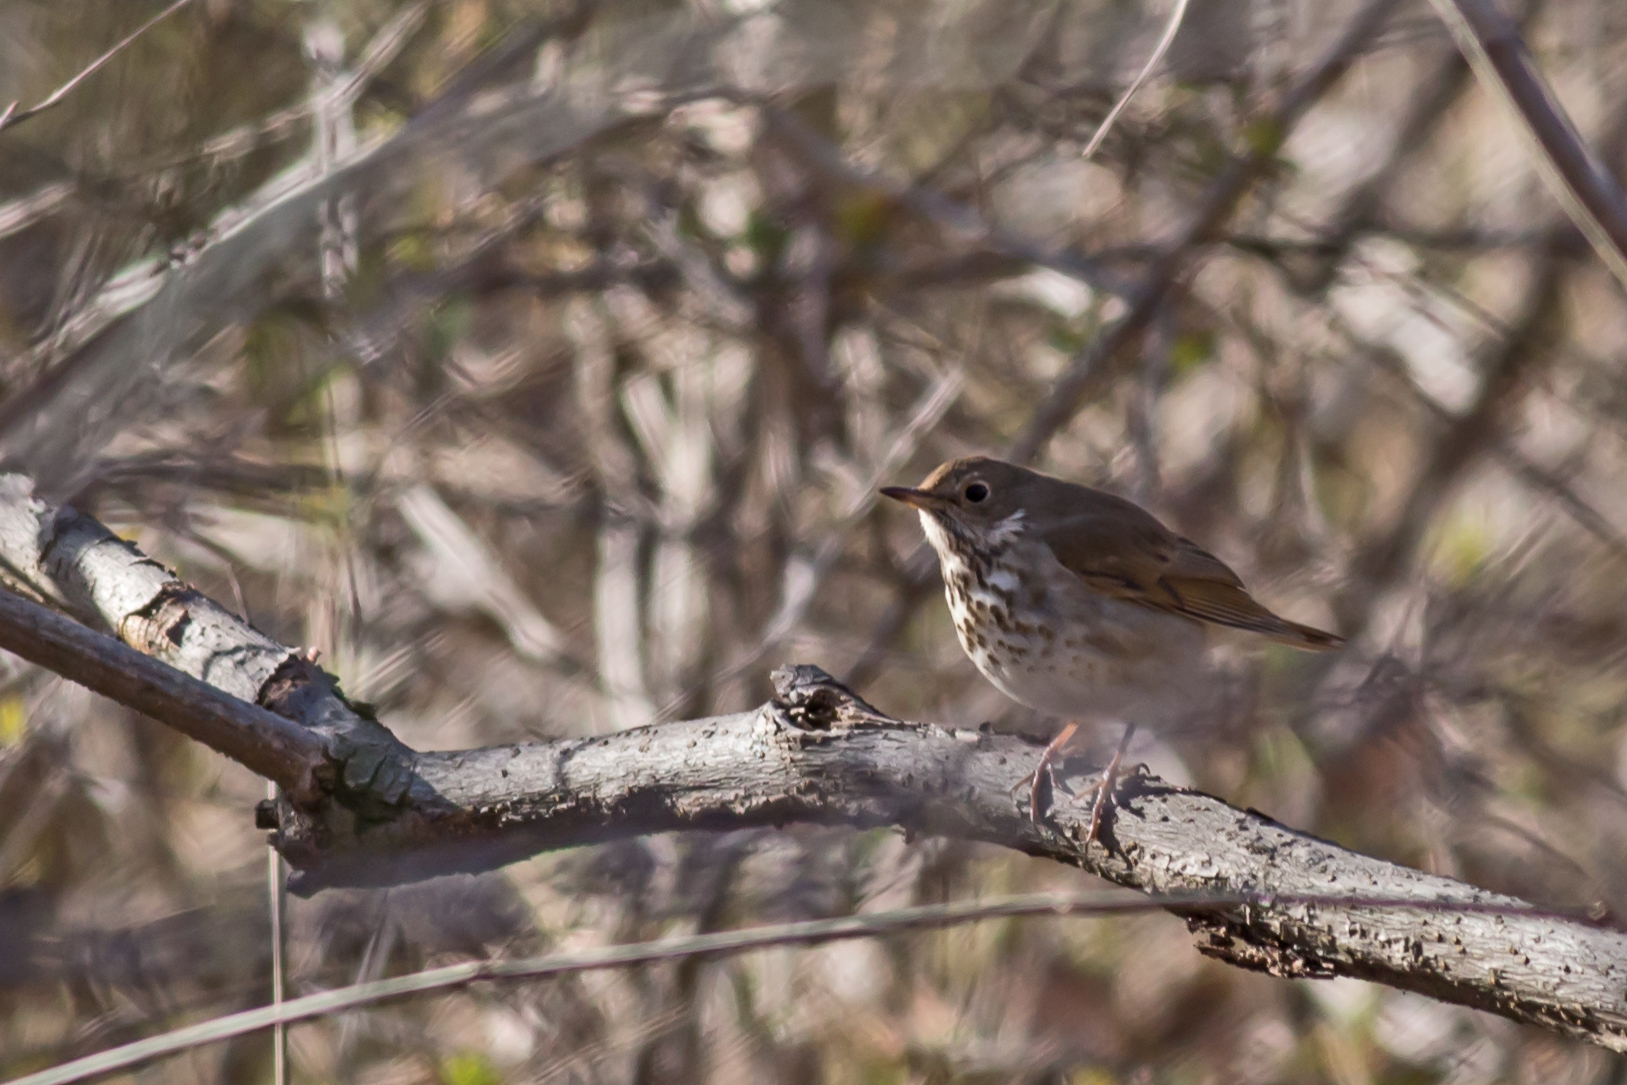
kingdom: Animalia
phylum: Chordata
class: Aves
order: Passeriformes
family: Turdidae
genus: Catharus
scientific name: Catharus guttatus
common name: Hermit thrush
